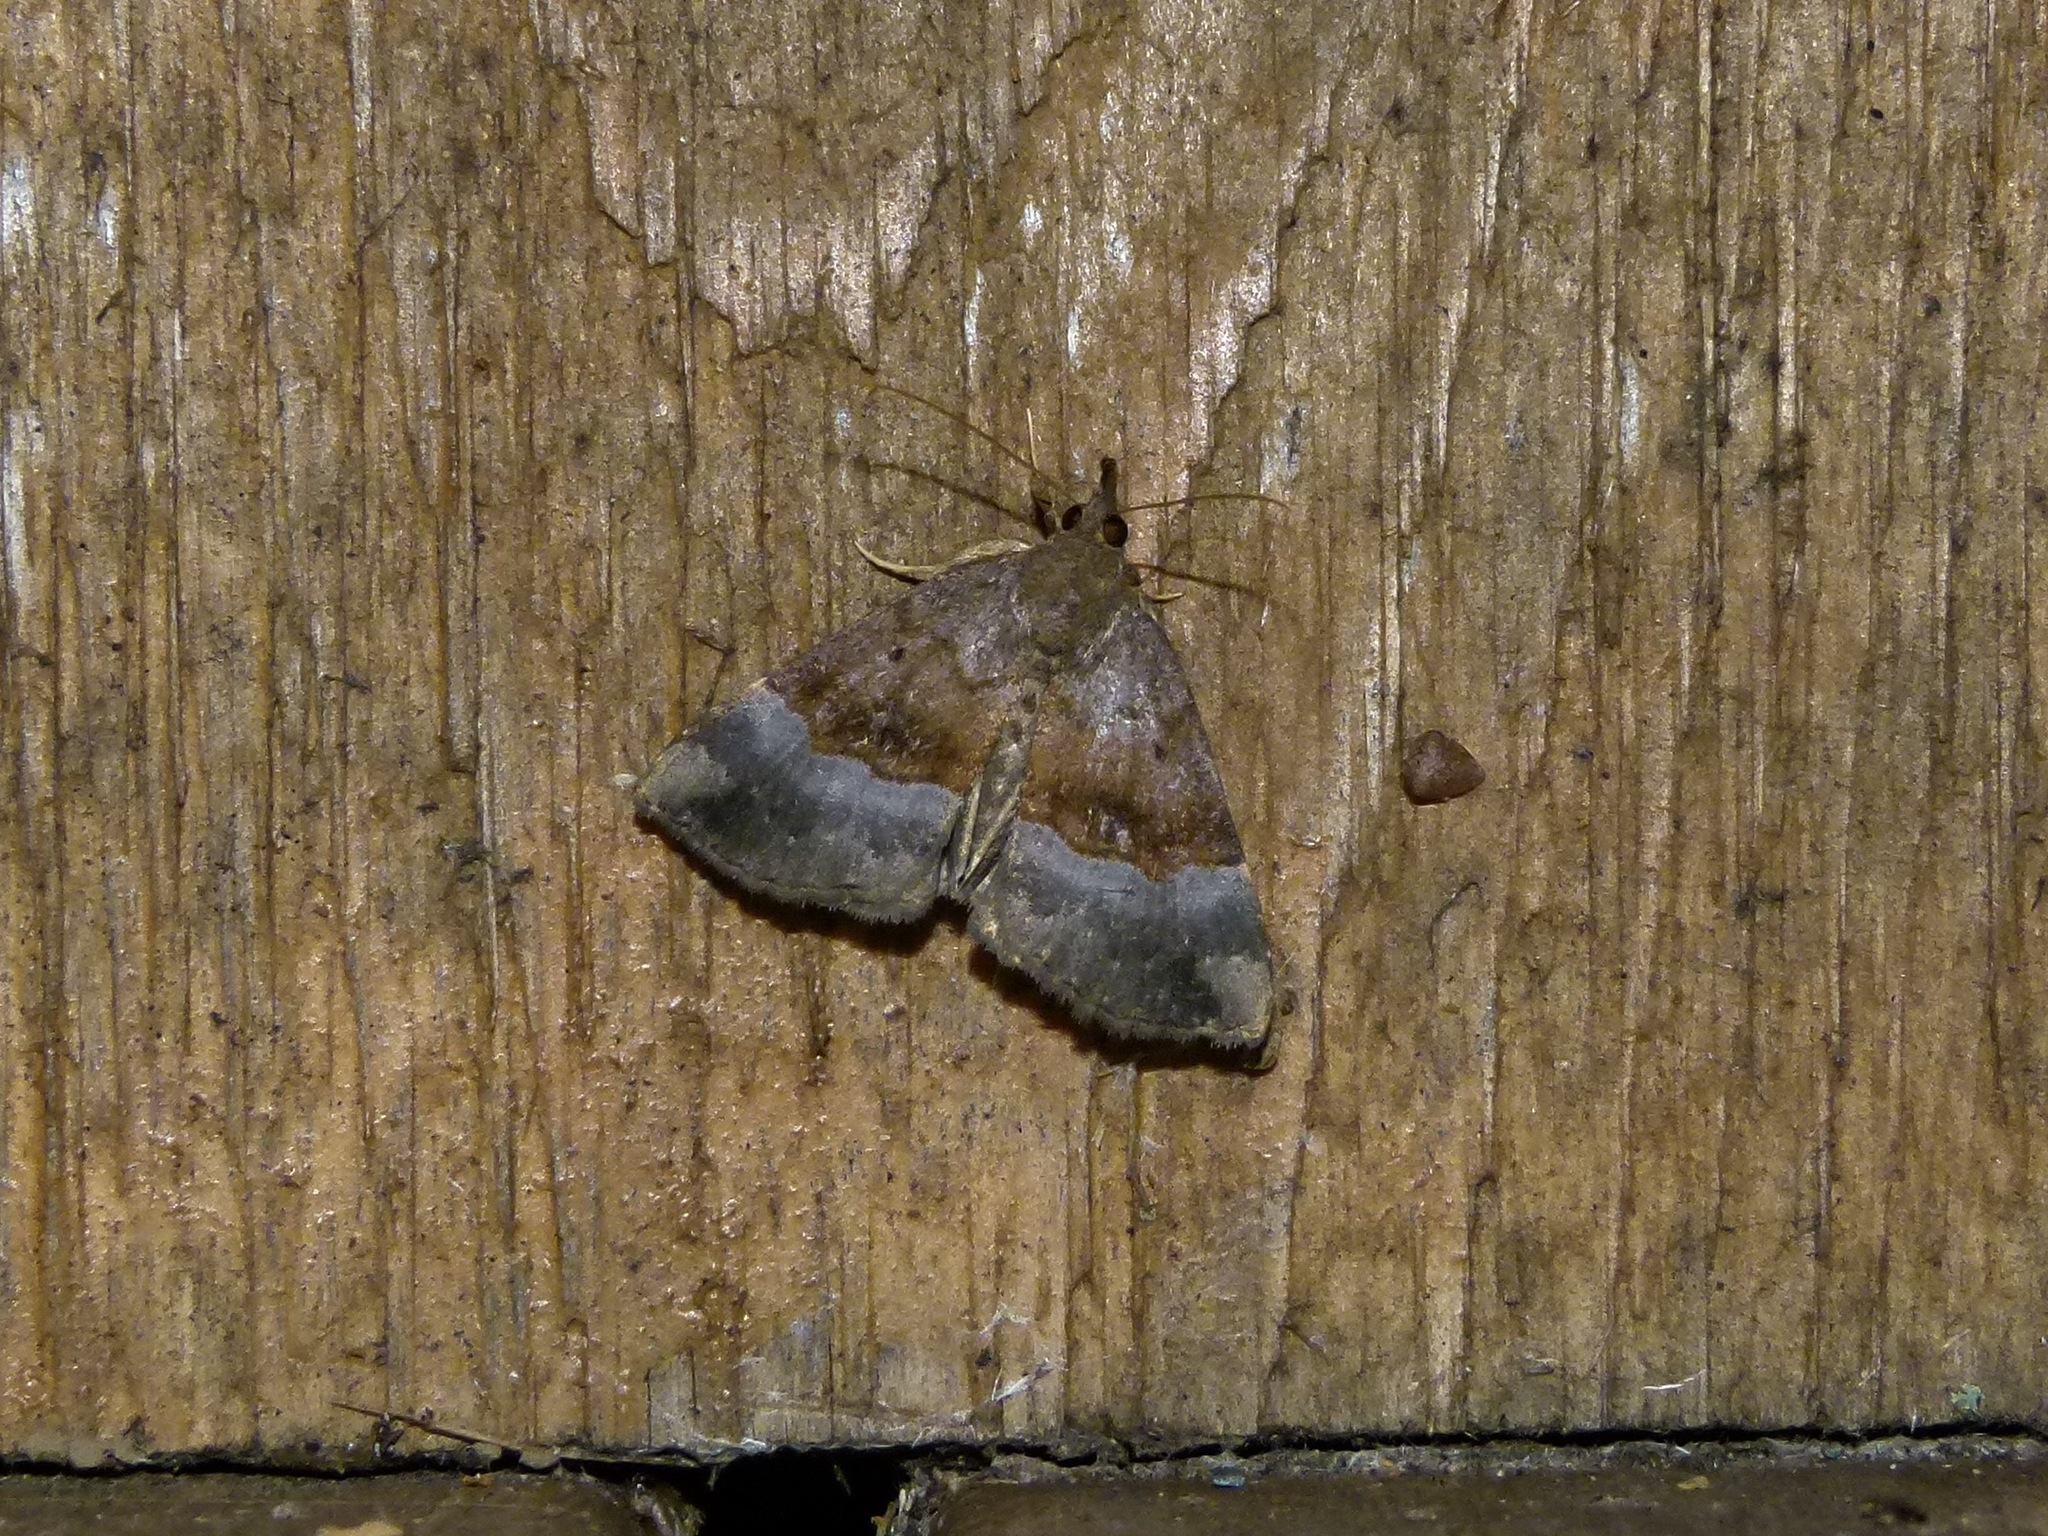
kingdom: Animalia
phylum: Arthropoda
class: Insecta
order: Lepidoptera
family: Erebidae
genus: Hypena
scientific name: Hypena madefactalis
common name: Gray-edged snout
